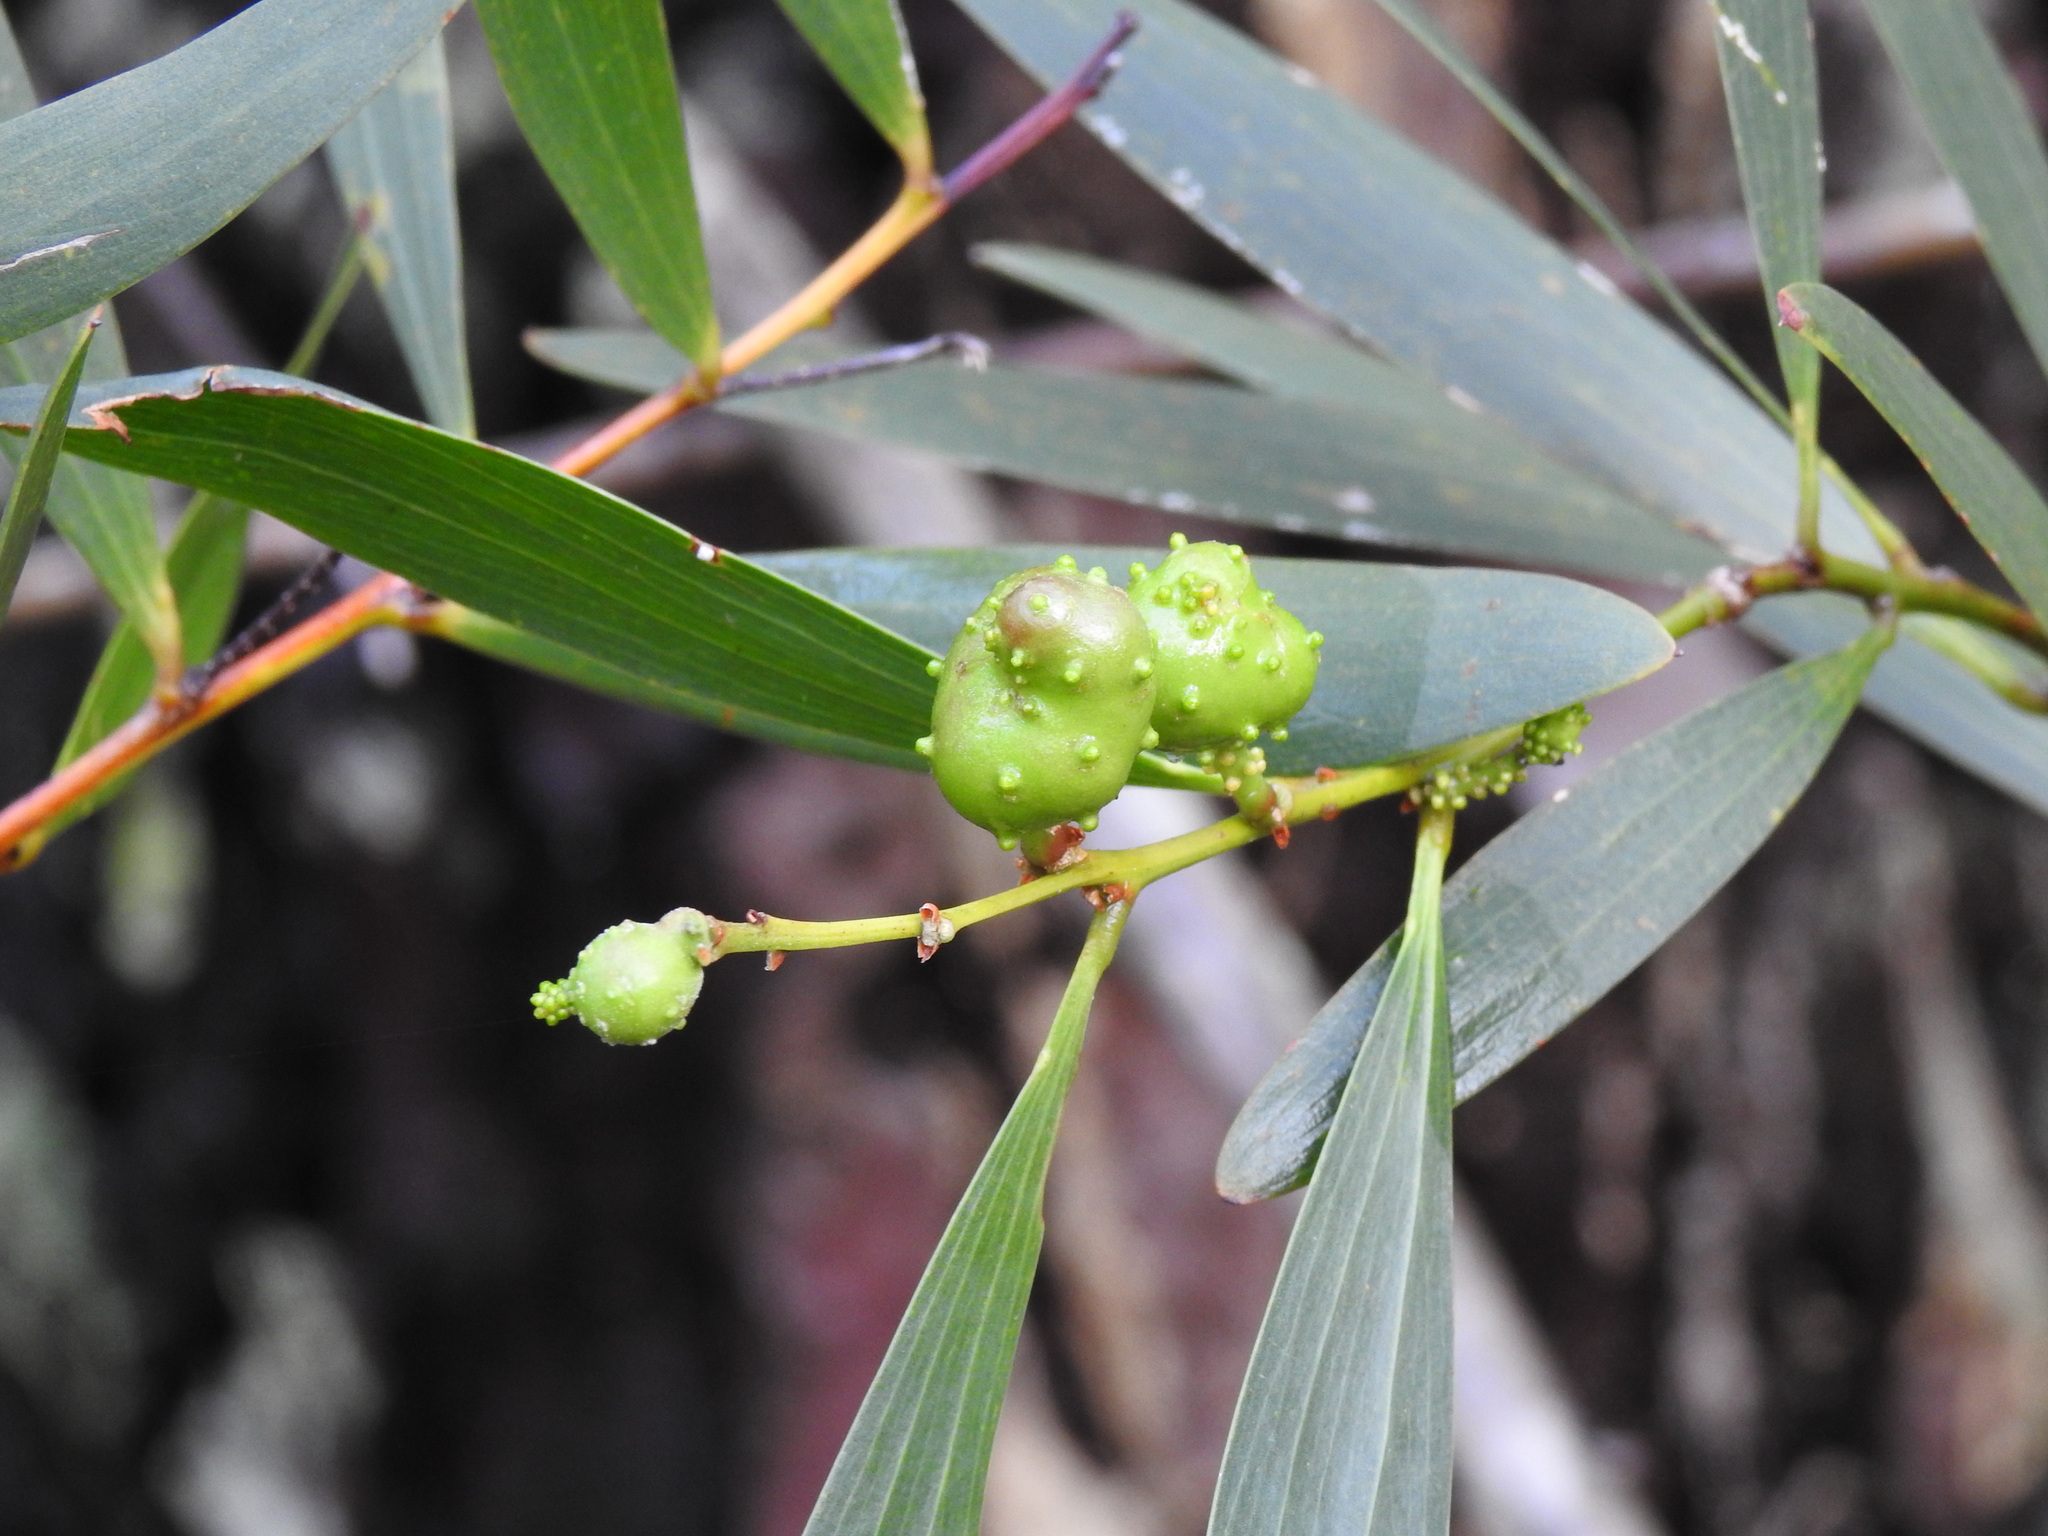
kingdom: Animalia
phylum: Arthropoda
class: Insecta
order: Hymenoptera
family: Pteromalidae
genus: Trichilogaster
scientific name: Trichilogaster acaciaelongifoliae
